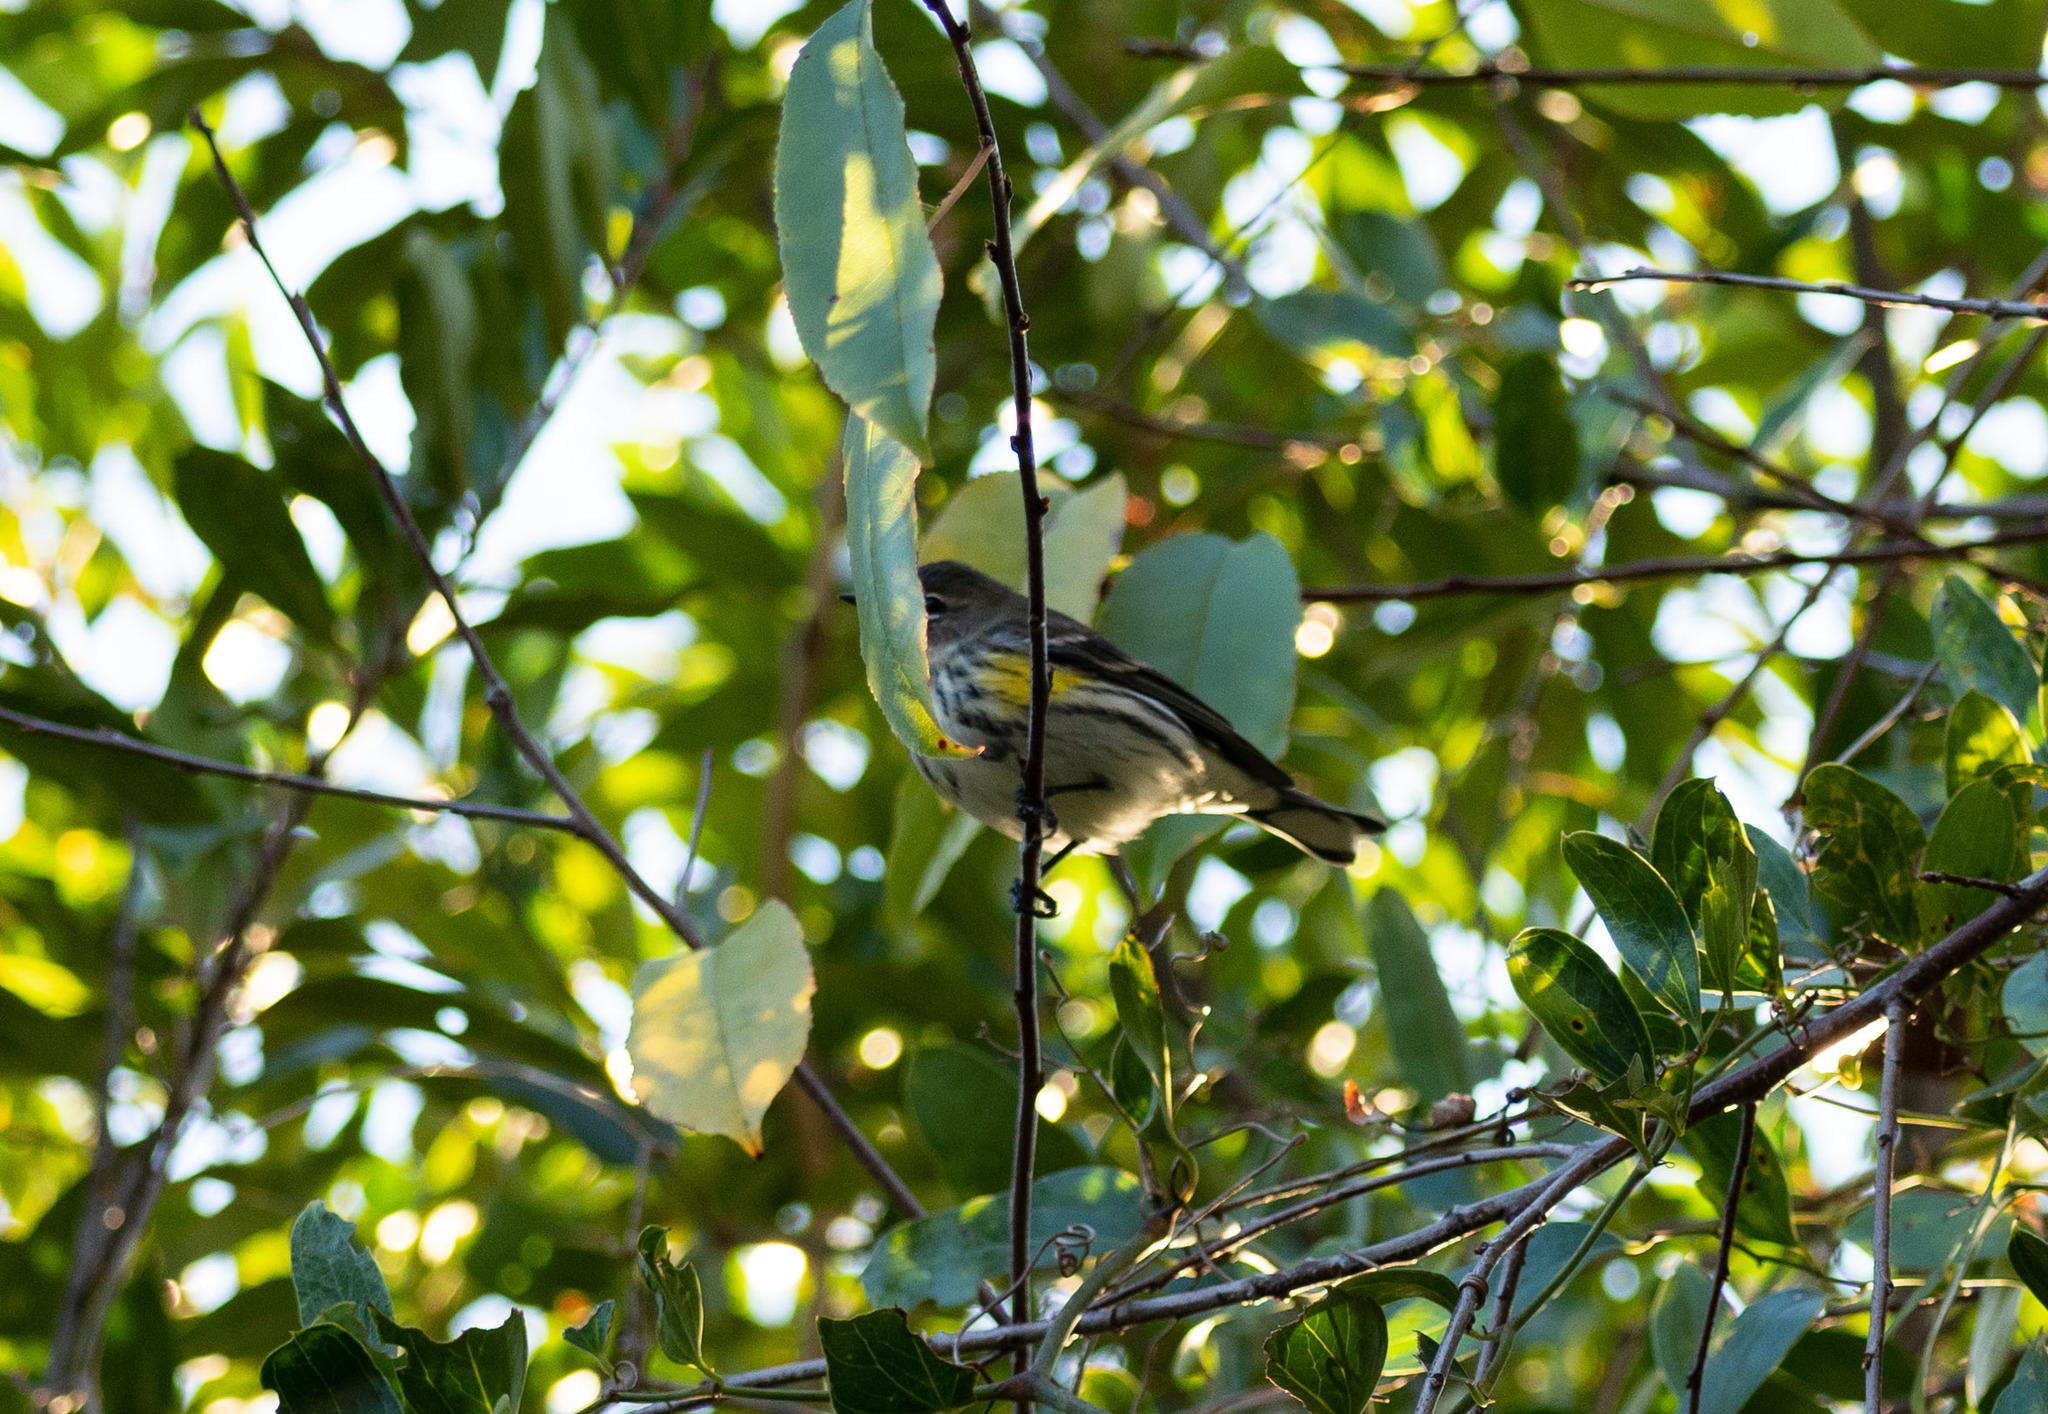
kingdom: Animalia
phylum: Chordata
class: Aves
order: Passeriformes
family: Parulidae
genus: Setophaga
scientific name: Setophaga coronata
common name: Myrtle warbler
